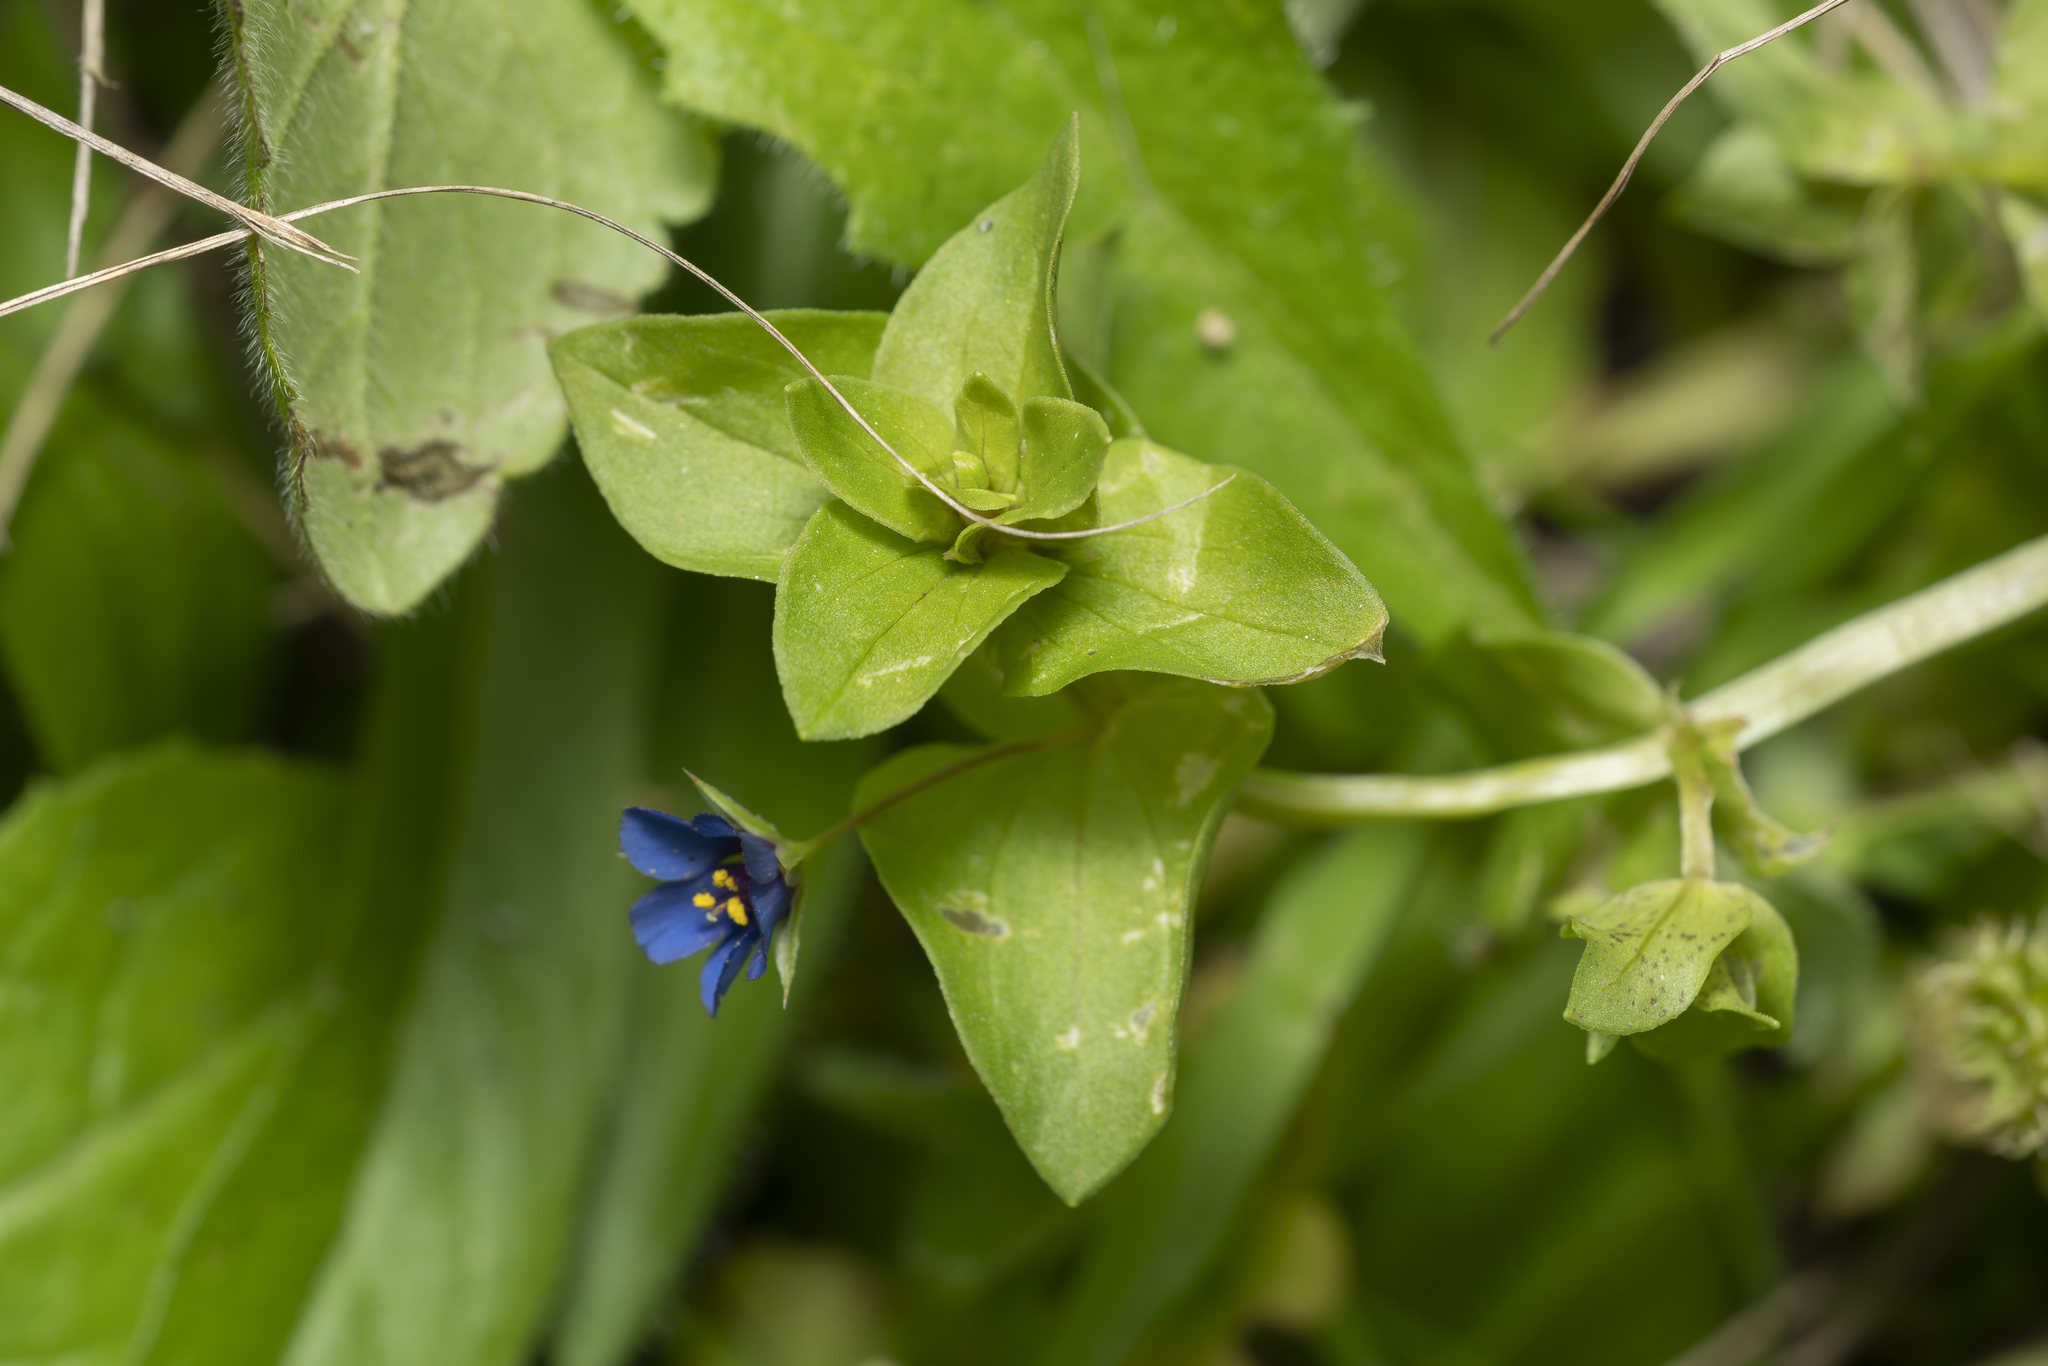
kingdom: Plantae
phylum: Tracheophyta
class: Magnoliopsida
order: Ericales
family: Primulaceae
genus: Lysimachia
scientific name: Lysimachia loeflingii
